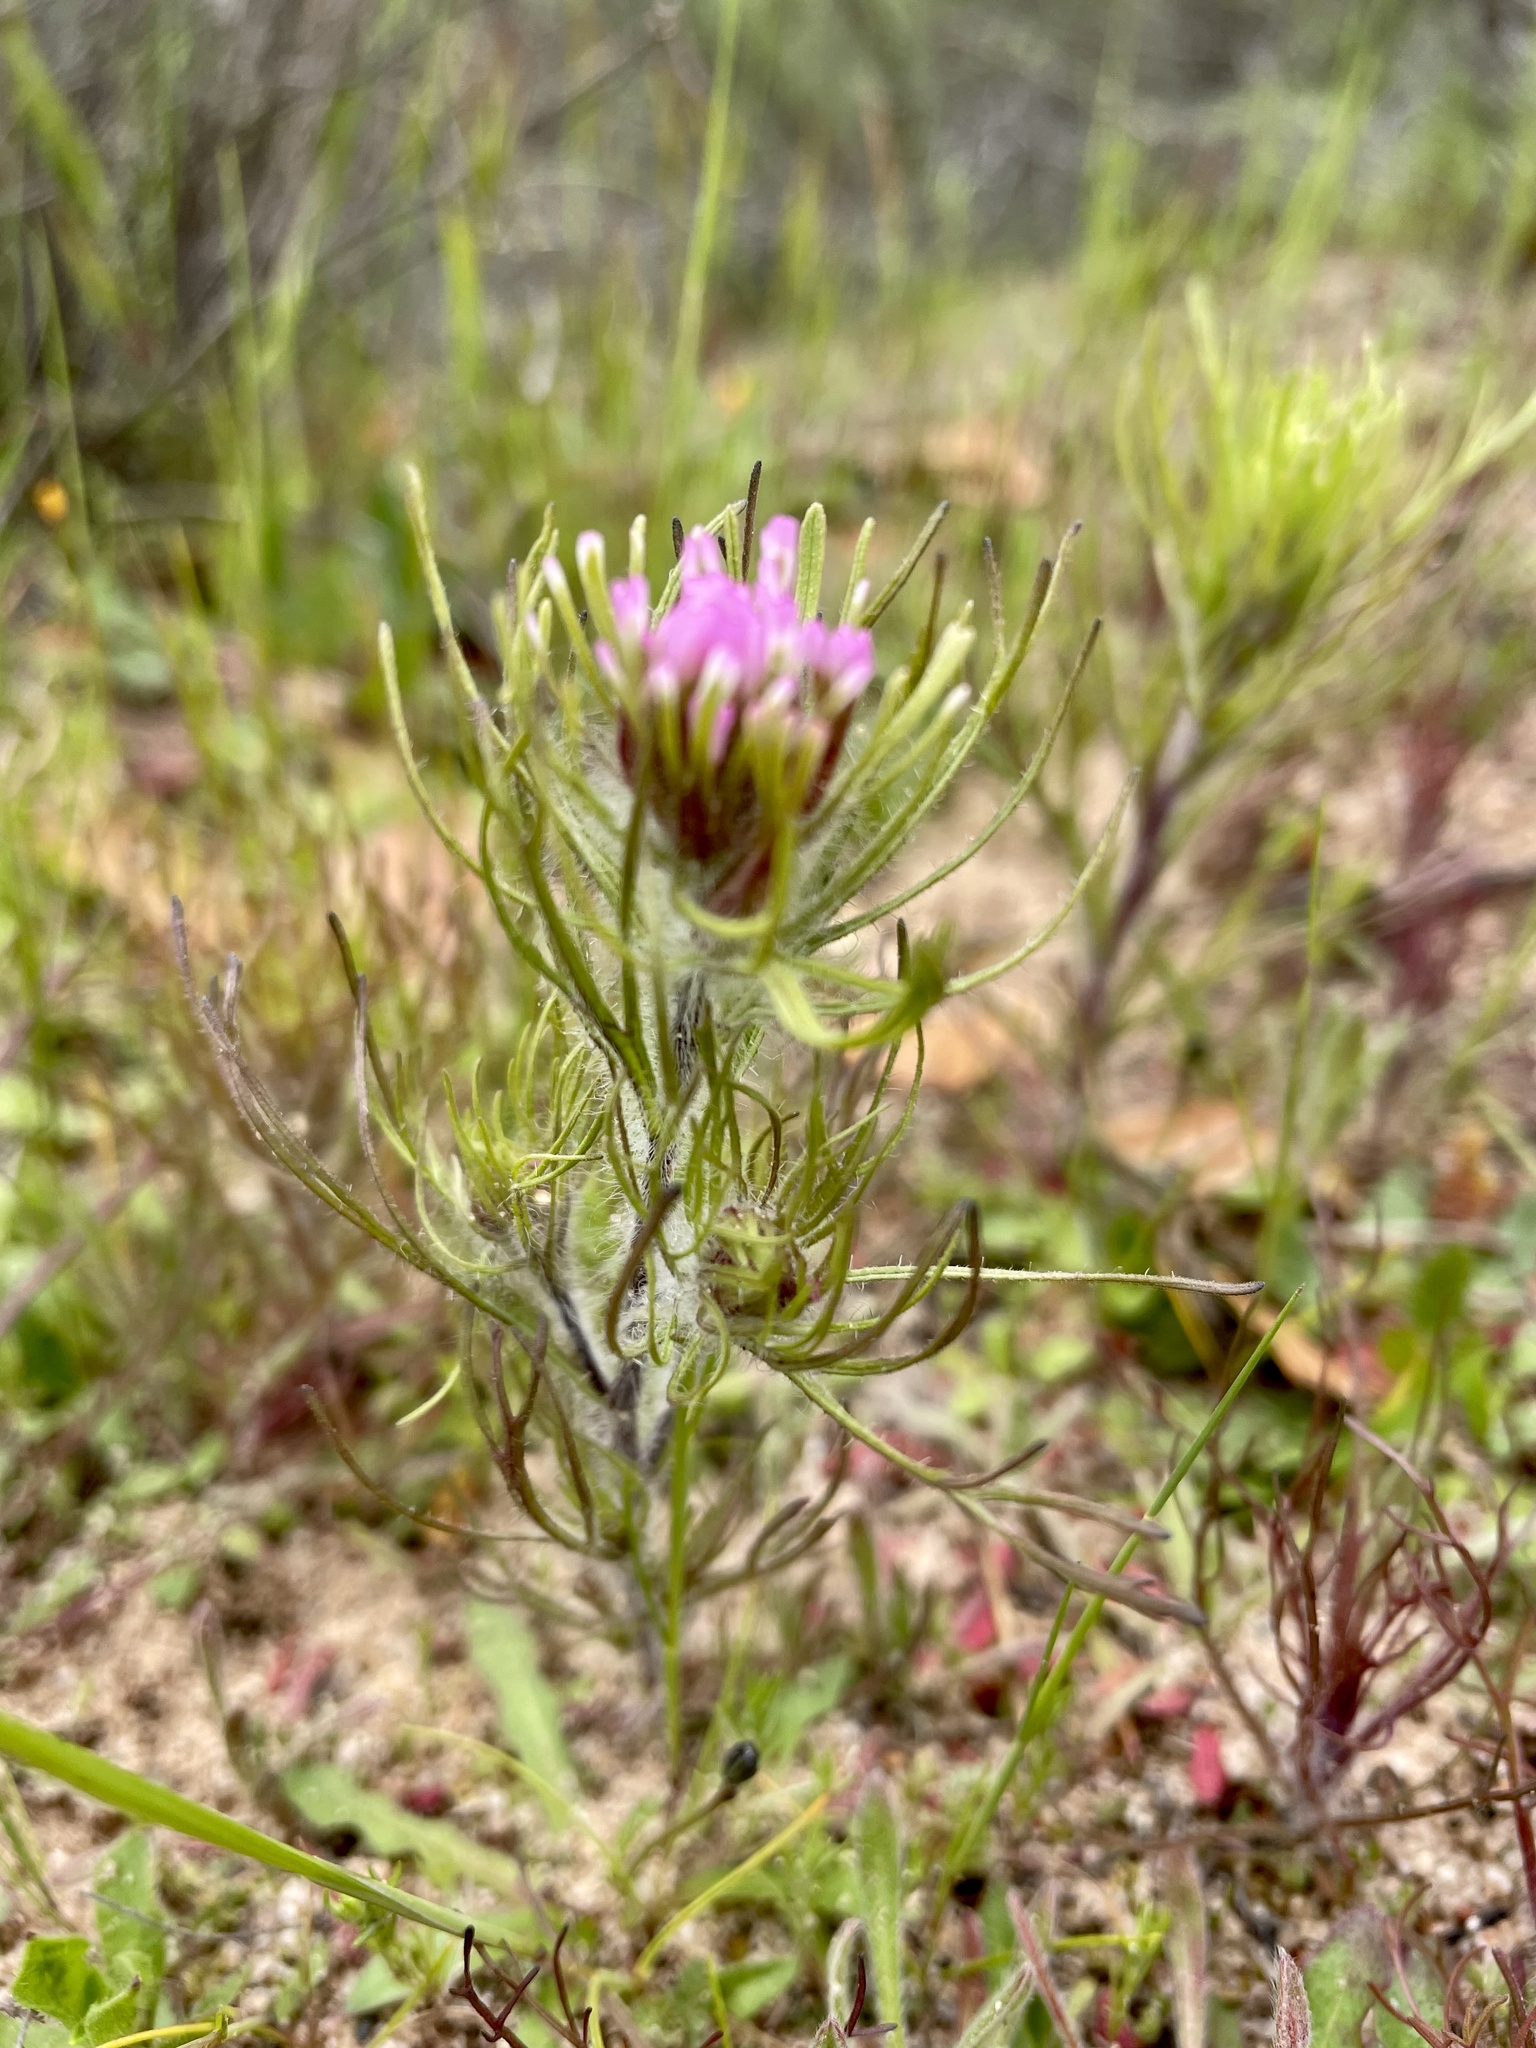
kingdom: Plantae
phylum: Tracheophyta
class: Magnoliopsida
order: Lamiales
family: Orobanchaceae
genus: Castilleja
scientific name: Castilleja exserta
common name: Purple owl-clover
